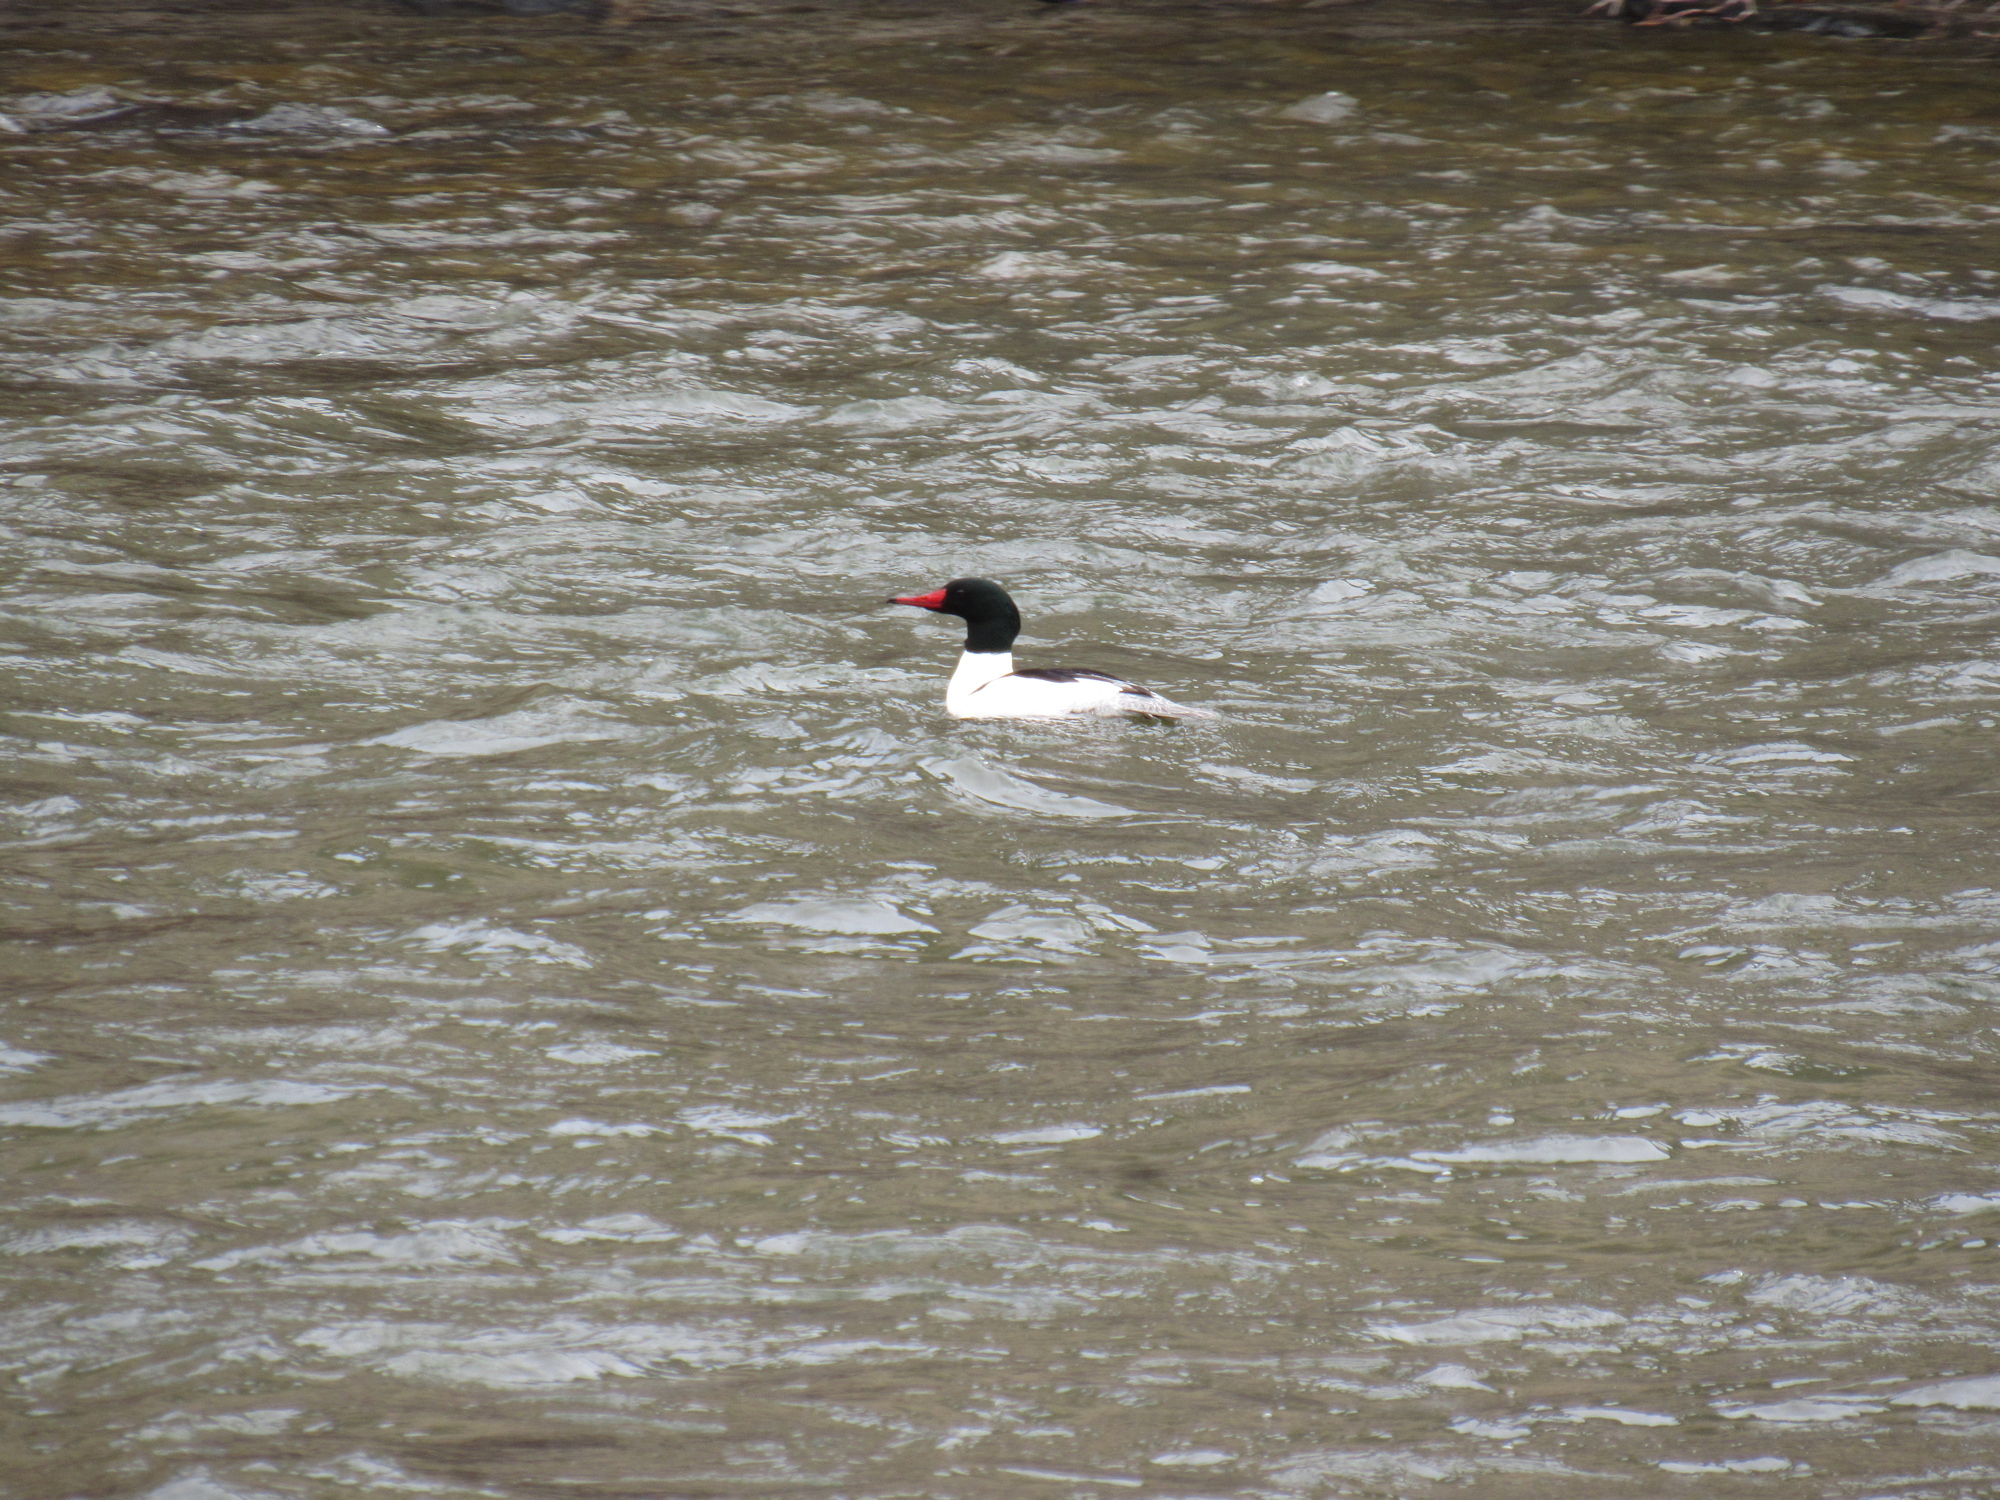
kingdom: Animalia
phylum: Chordata
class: Aves
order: Anseriformes
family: Anatidae
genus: Mergus
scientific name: Mergus merganser
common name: Common merganser
